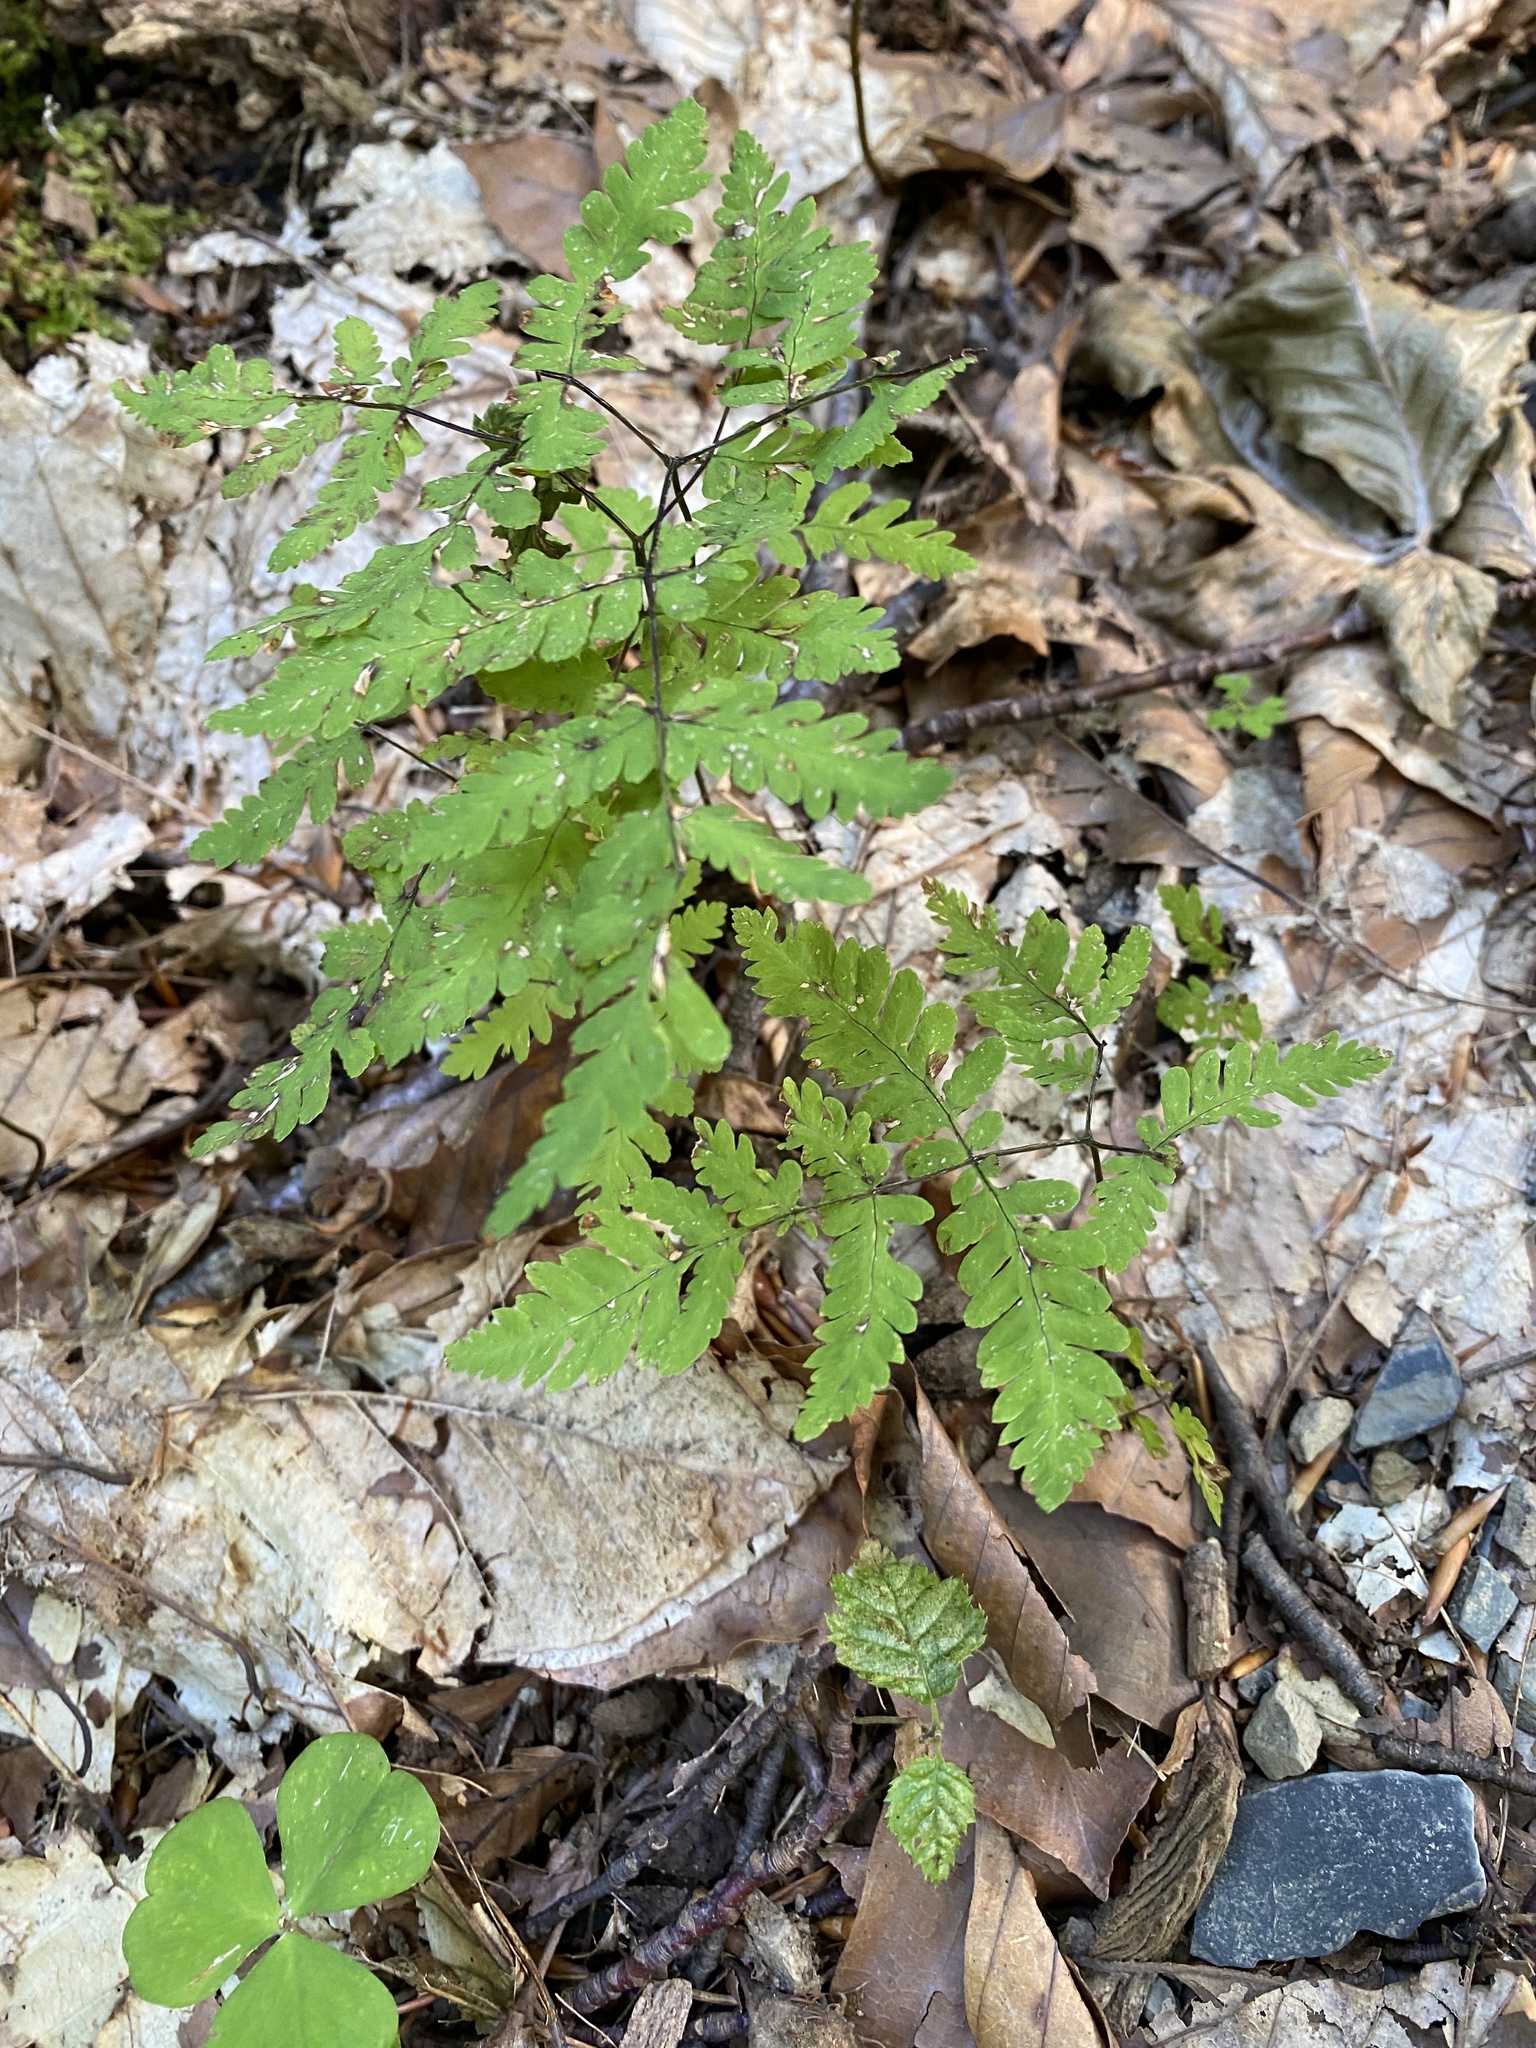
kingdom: Plantae
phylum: Tracheophyta
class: Polypodiopsida
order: Polypodiales
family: Cystopteridaceae
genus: Gymnocarpium
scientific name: Gymnocarpium dryopteris
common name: Oak fern
